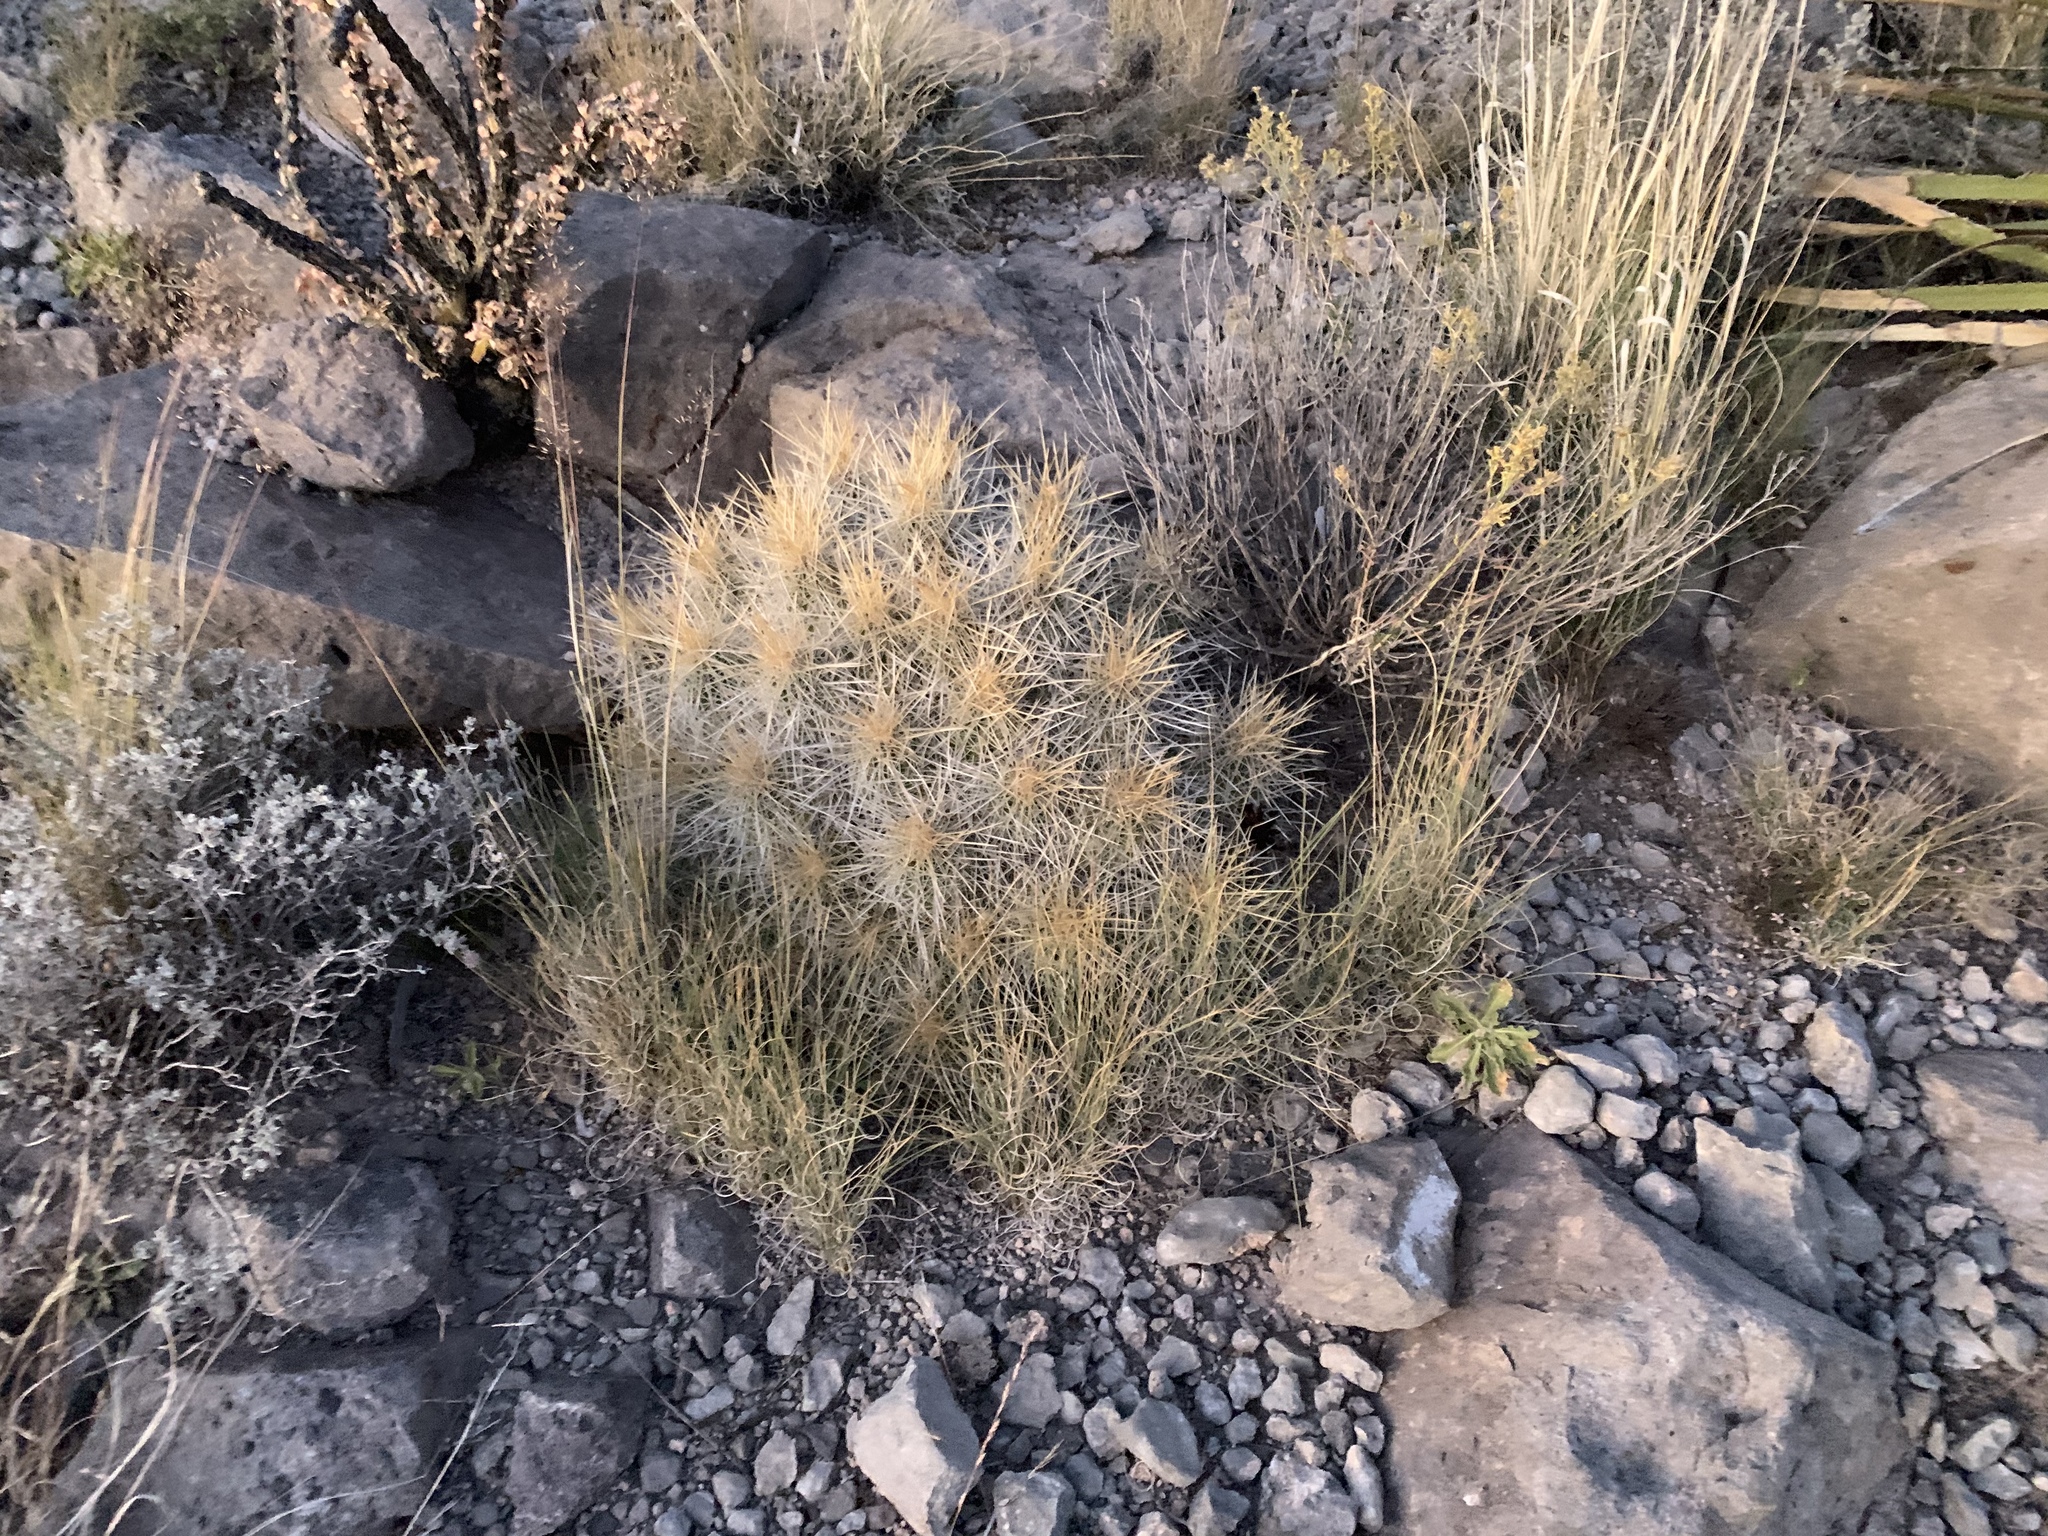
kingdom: Plantae
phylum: Tracheophyta
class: Magnoliopsida
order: Caryophyllales
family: Cactaceae
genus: Echinocereus
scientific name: Echinocereus stramineus
